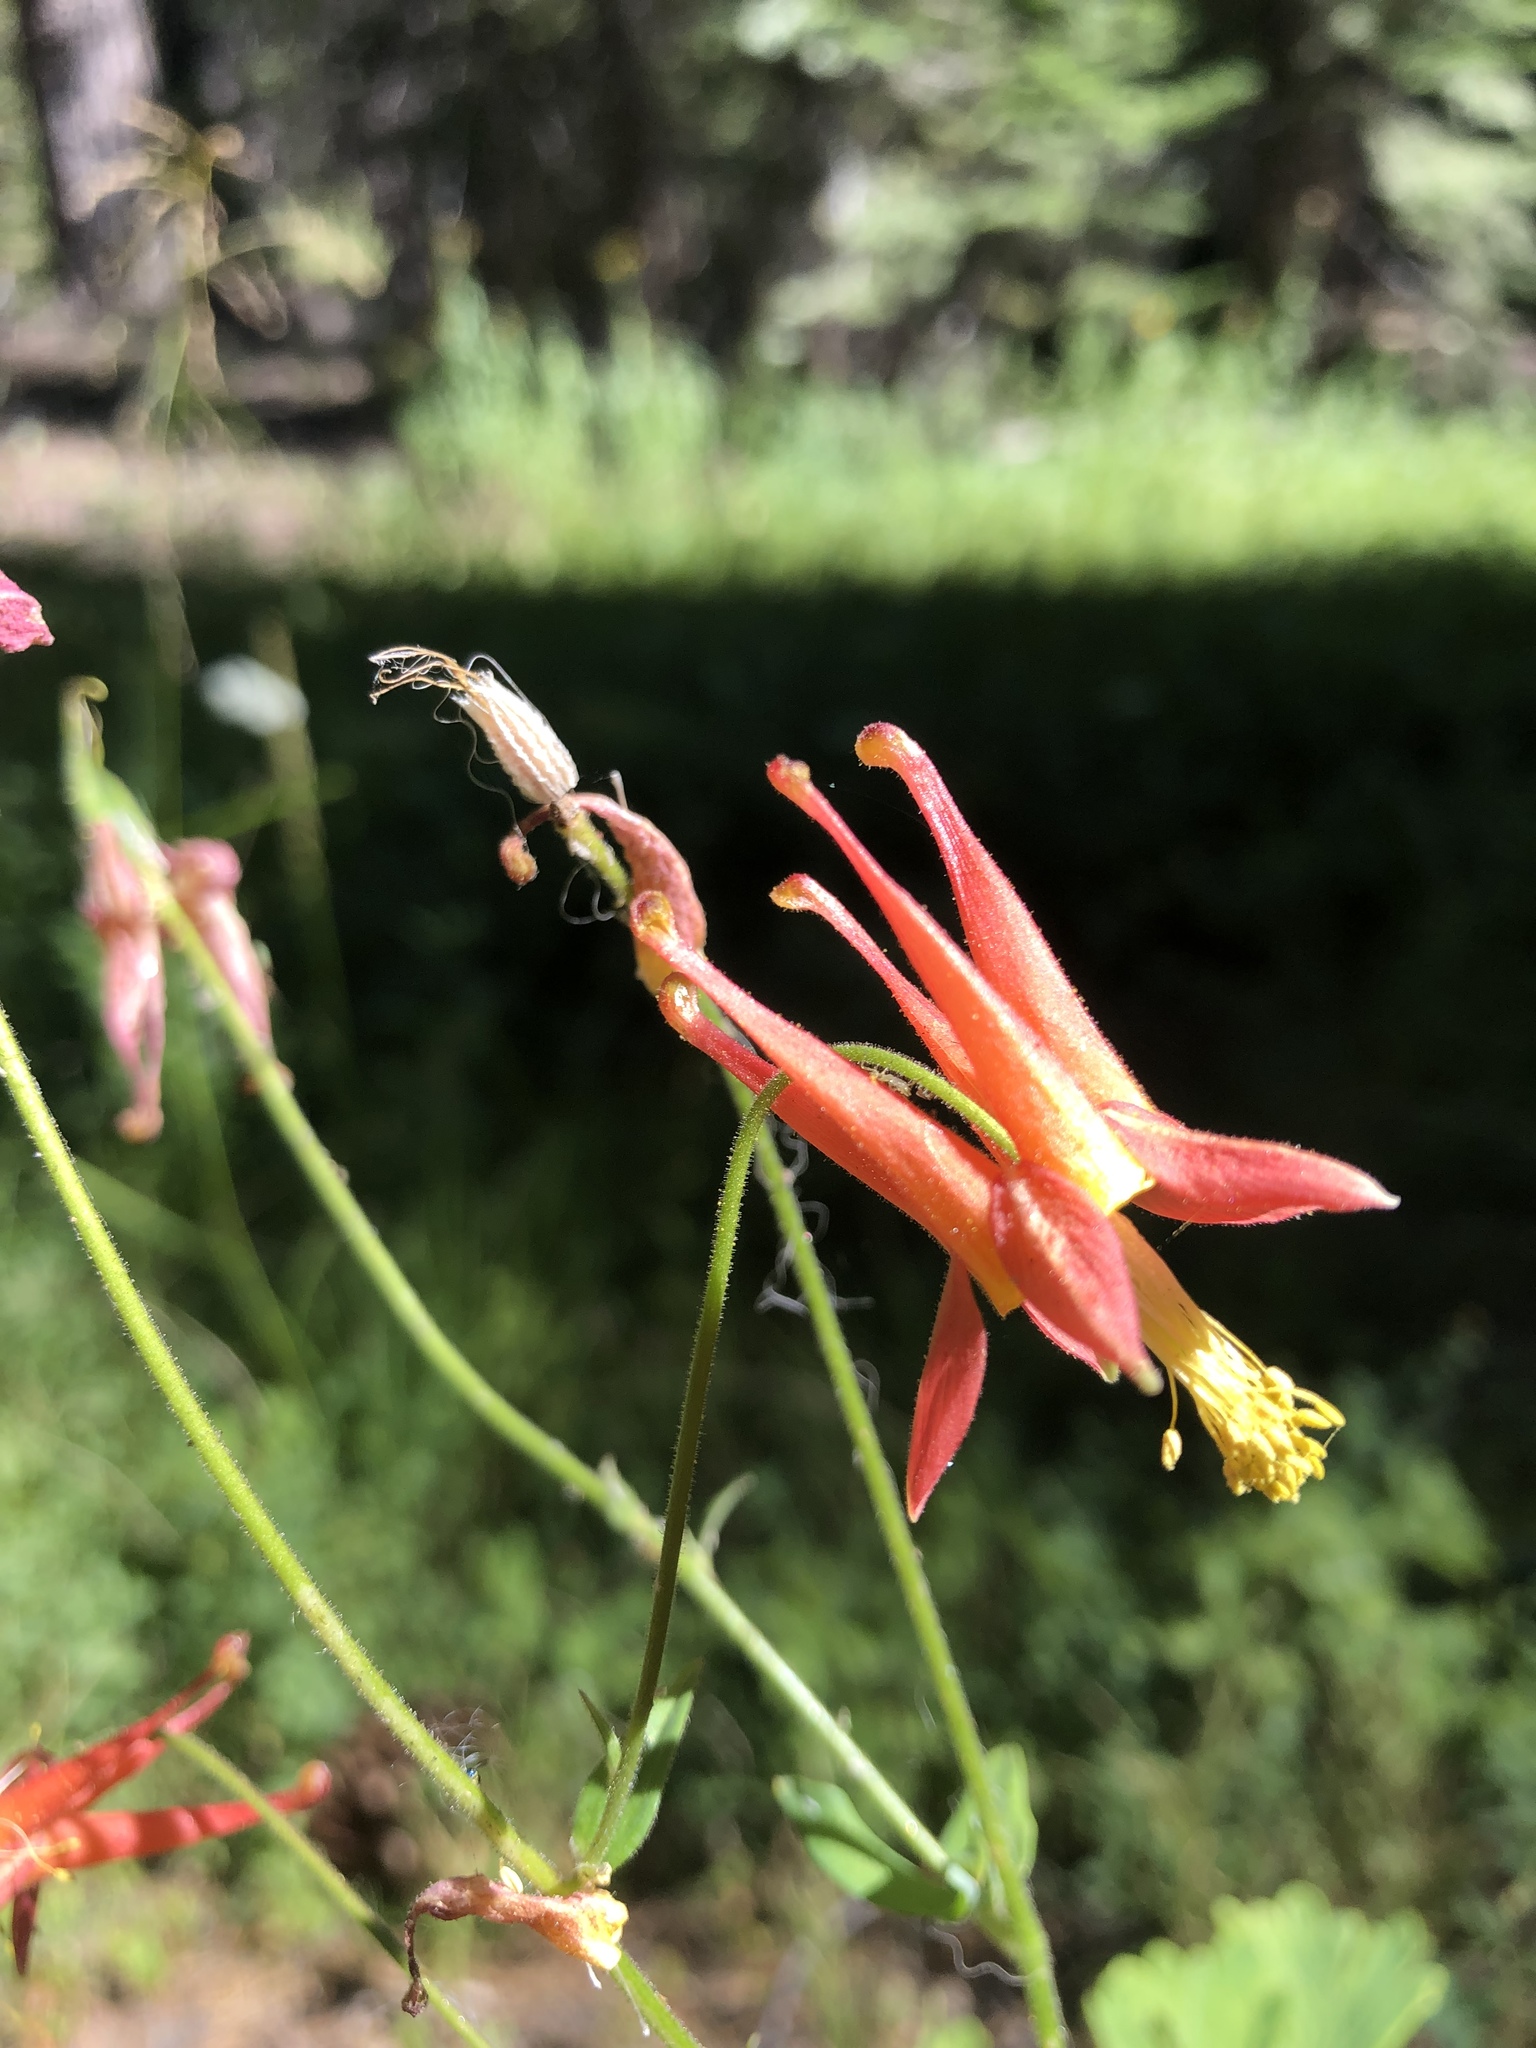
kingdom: Plantae
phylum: Tracheophyta
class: Magnoliopsida
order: Ranunculales
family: Ranunculaceae
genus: Aquilegia
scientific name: Aquilegia formosa
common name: Sitka columbine
